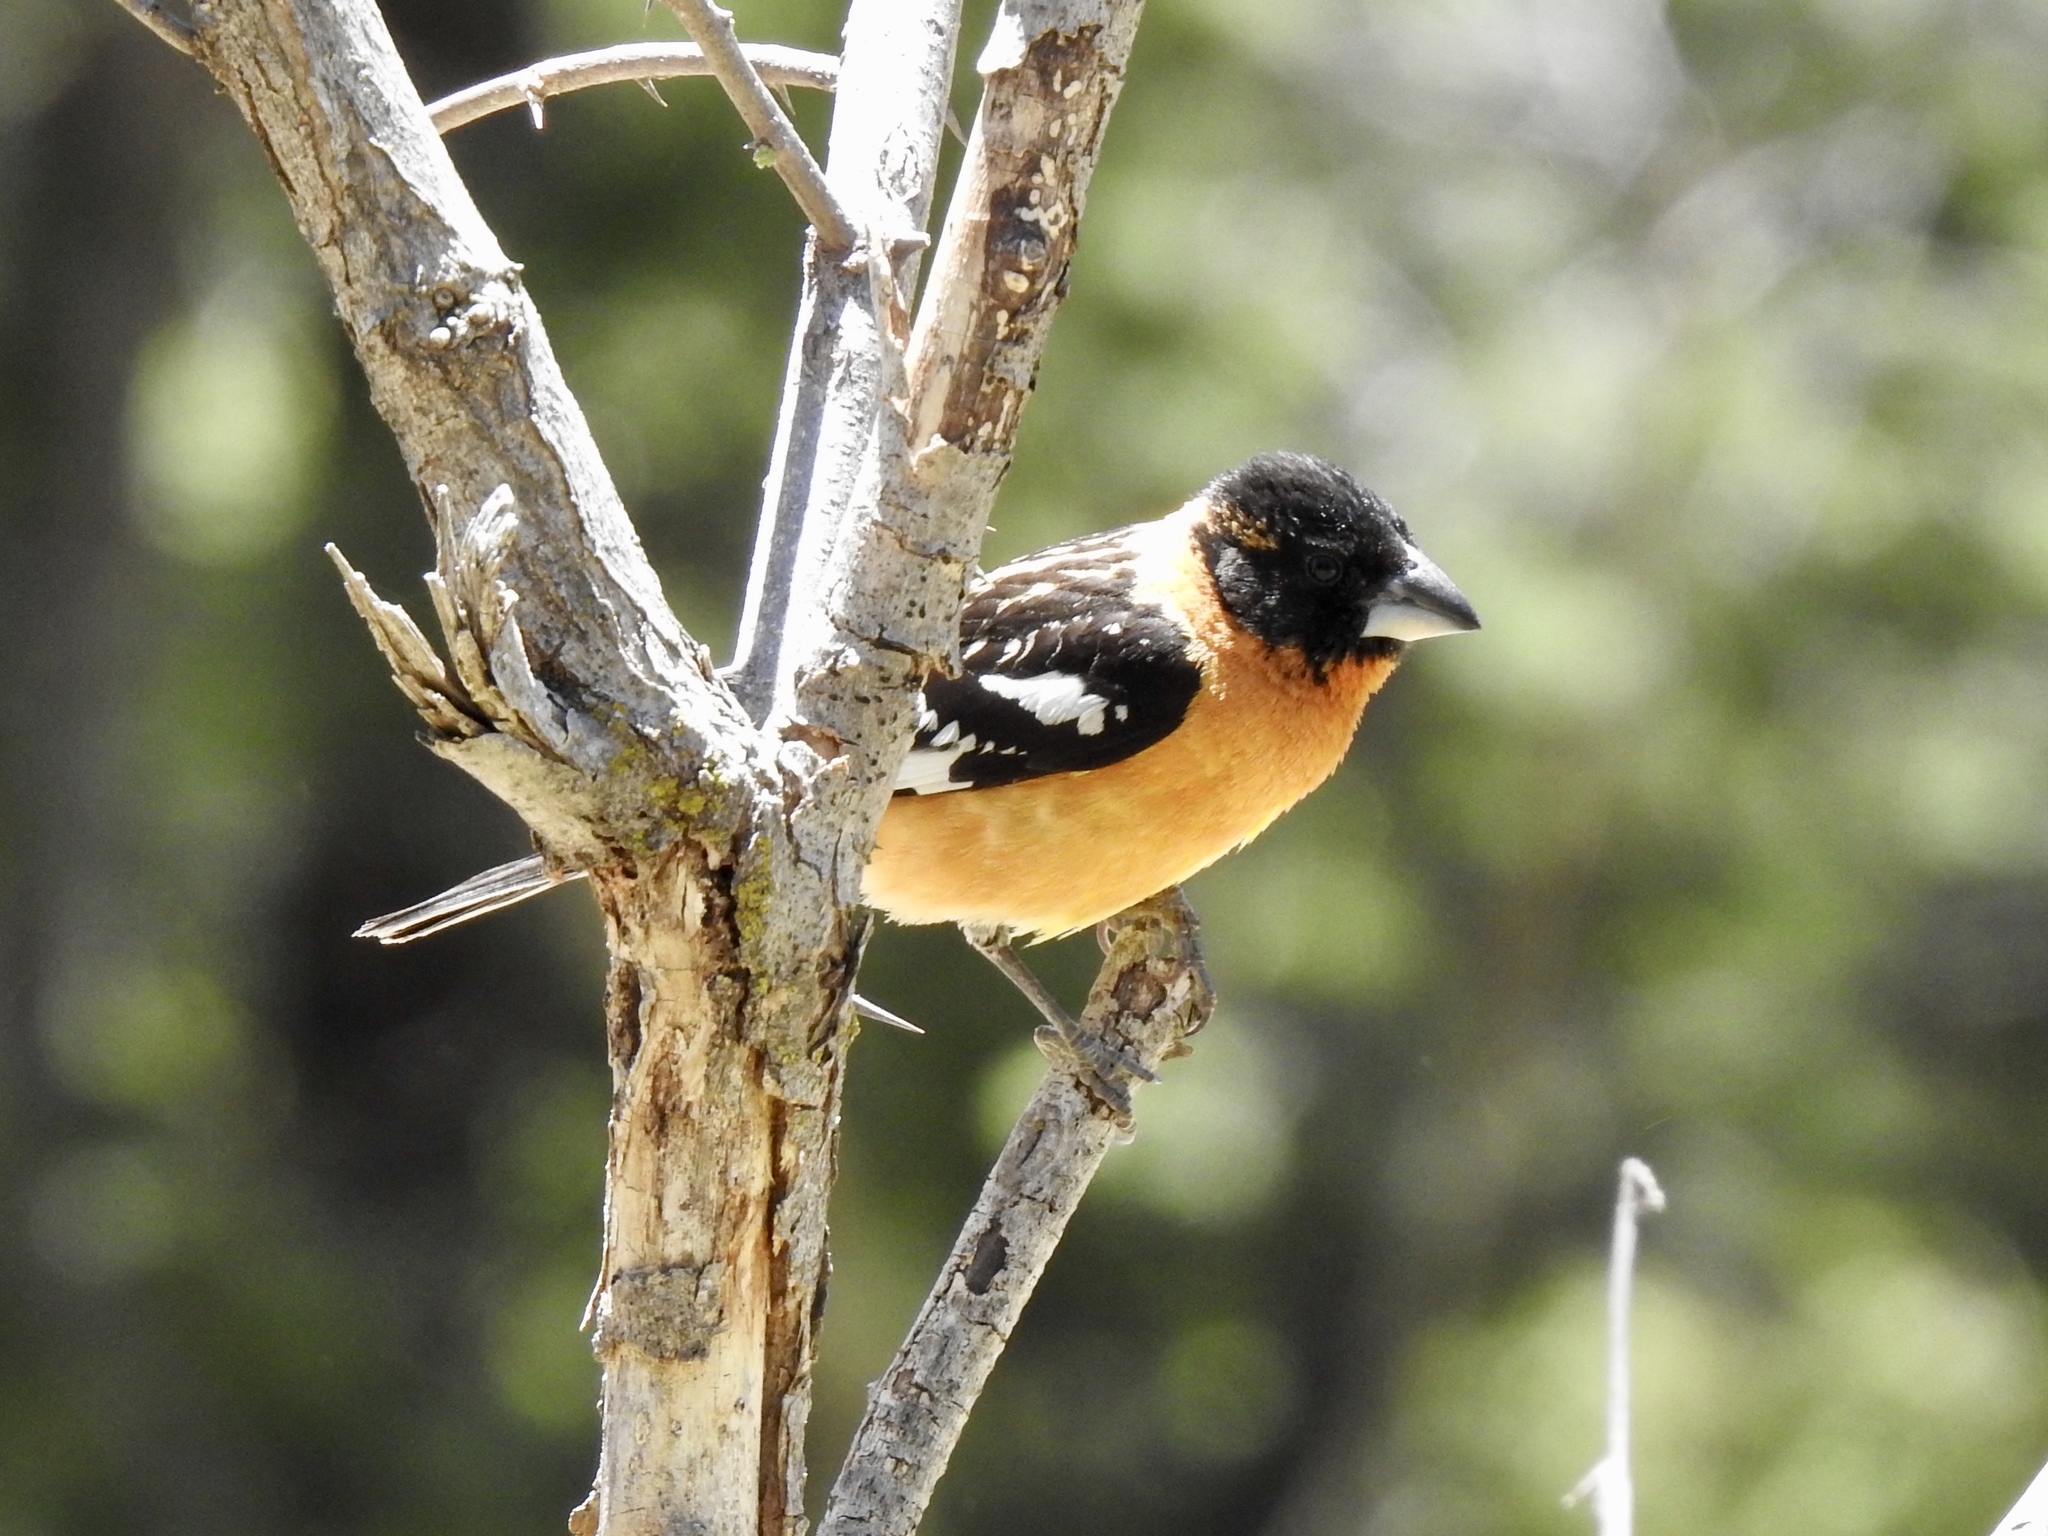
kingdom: Animalia
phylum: Chordata
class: Aves
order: Passeriformes
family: Cardinalidae
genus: Pheucticus
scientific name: Pheucticus melanocephalus
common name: Black-headed grosbeak
